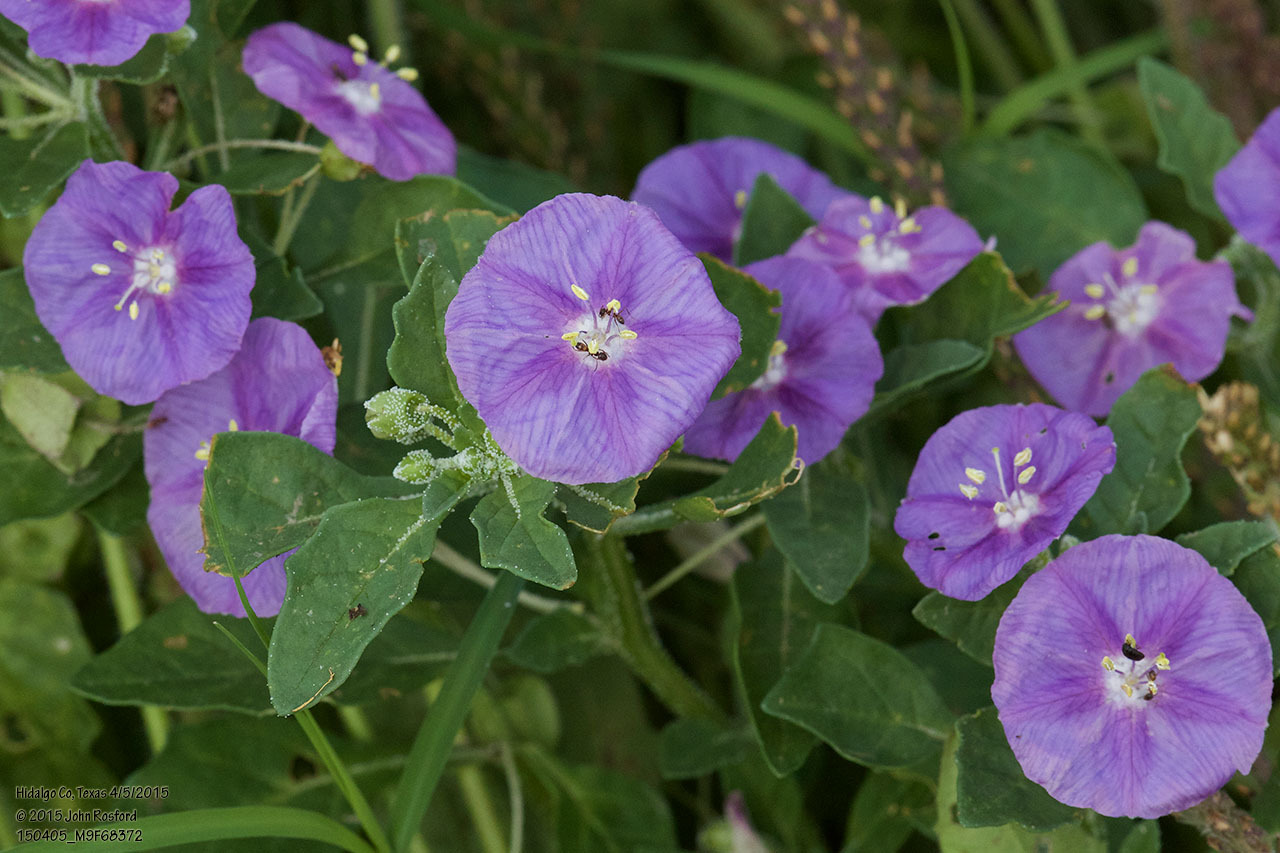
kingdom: Plantae
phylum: Tracheophyta
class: Magnoliopsida
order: Solanales
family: Solanaceae
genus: Quincula
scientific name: Quincula lobata
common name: Purple-ground-cherry
